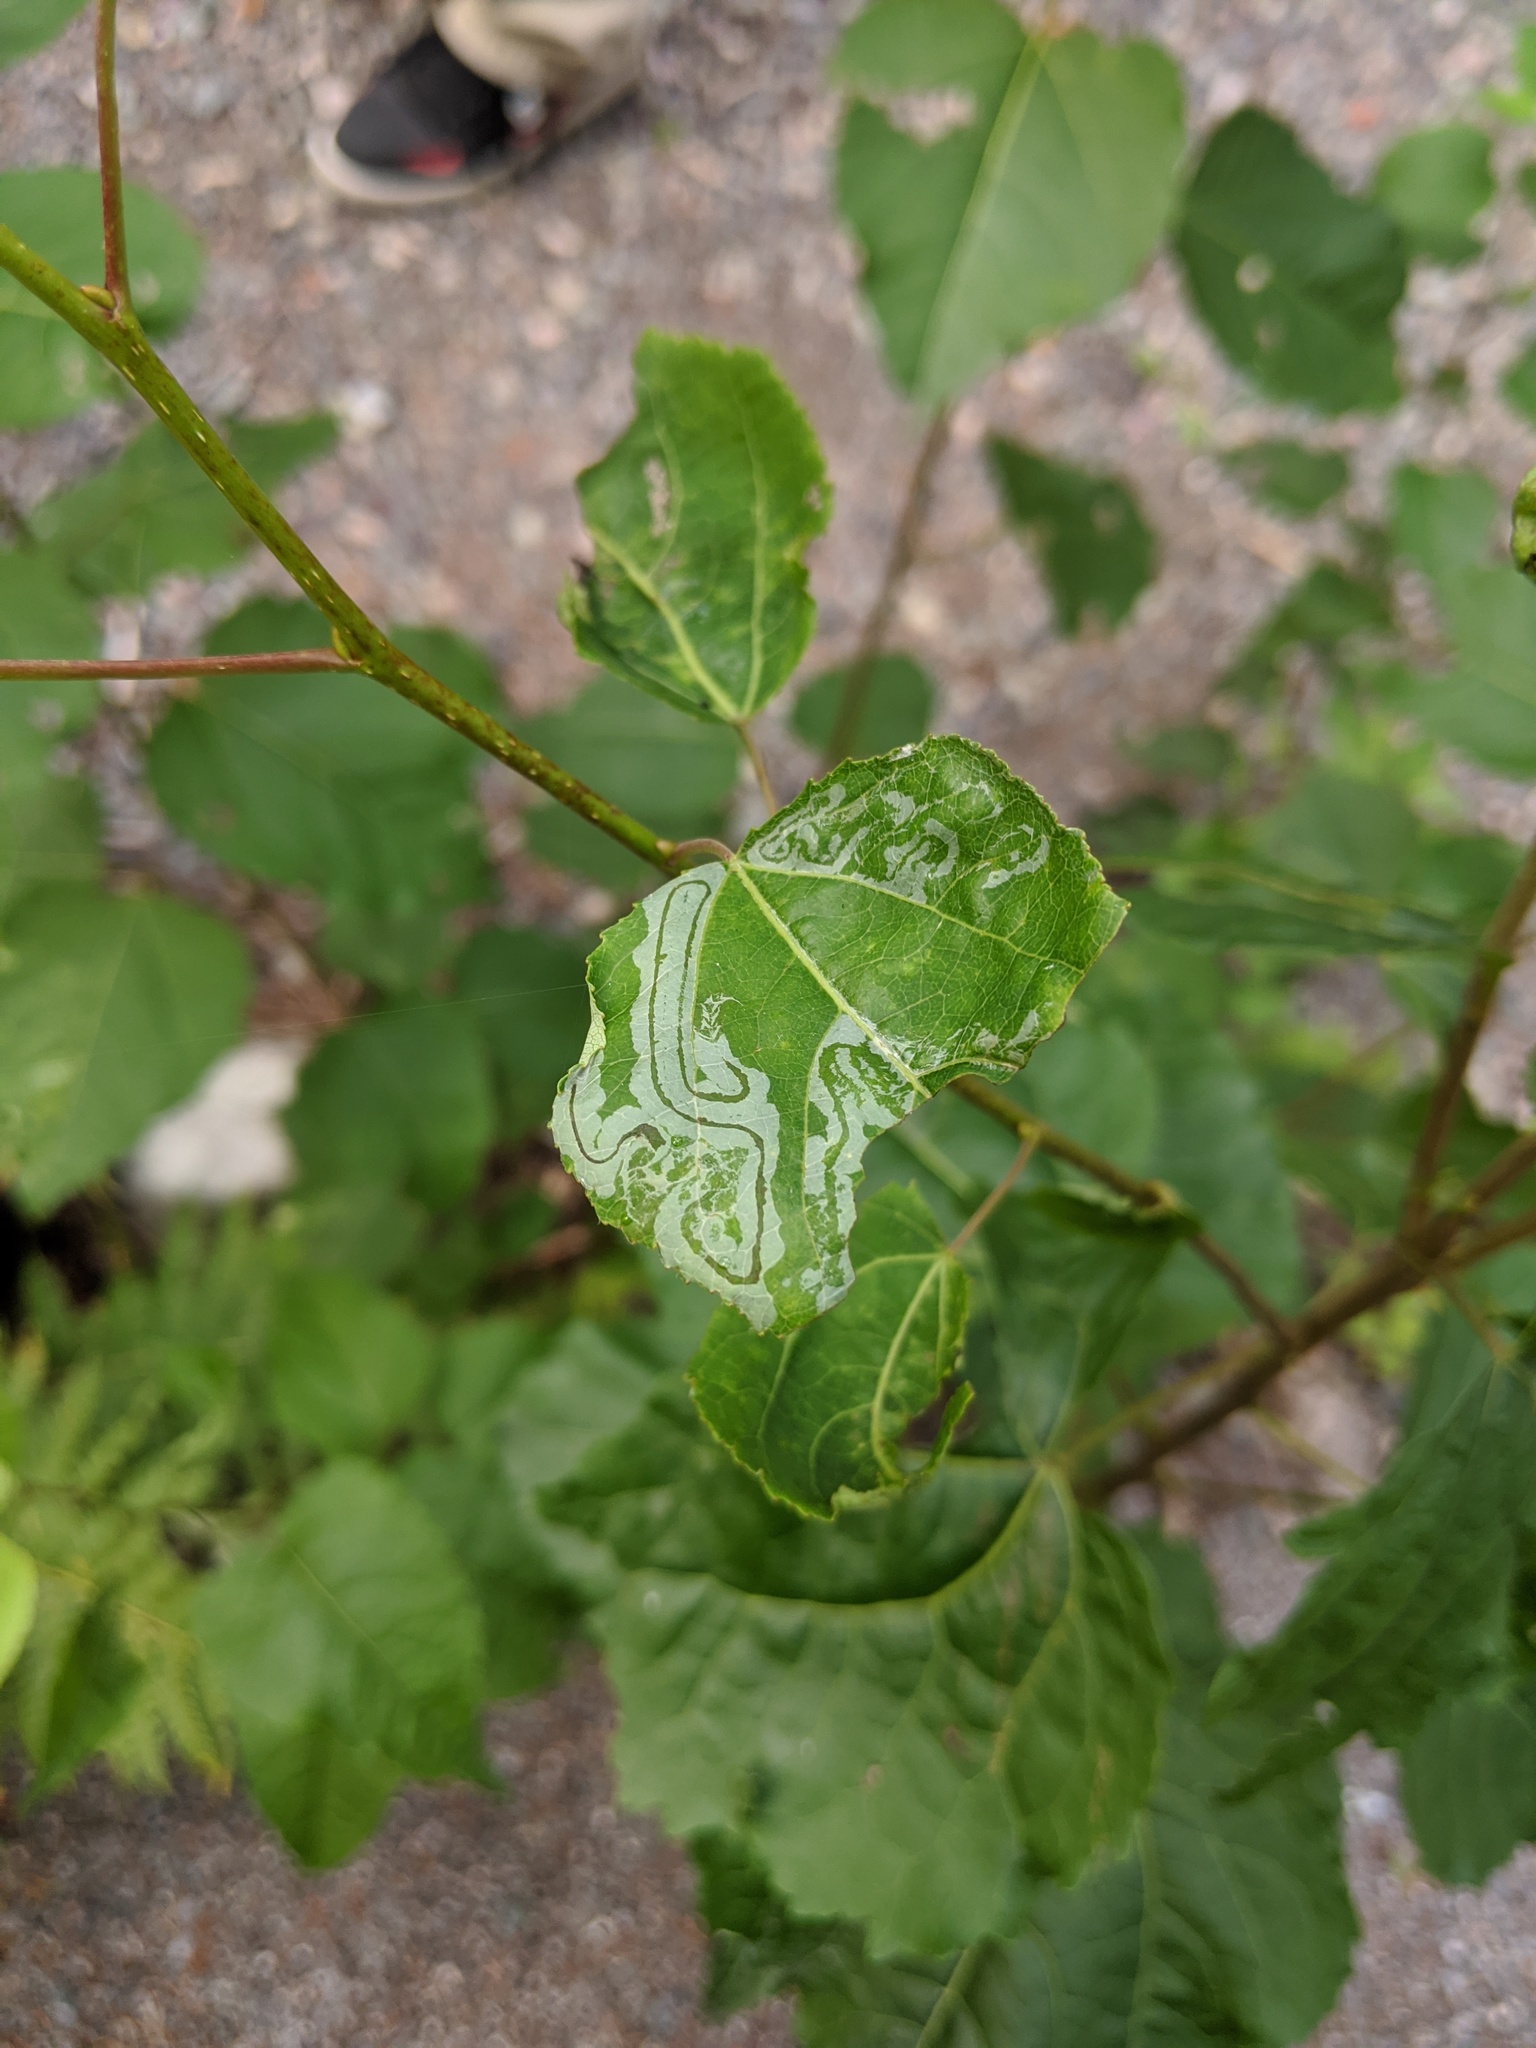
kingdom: Animalia
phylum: Arthropoda
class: Insecta
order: Lepidoptera
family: Gracillariidae
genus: Phyllocnistis
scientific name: Phyllocnistis populiella
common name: Aspen serpentine leafminer moth
